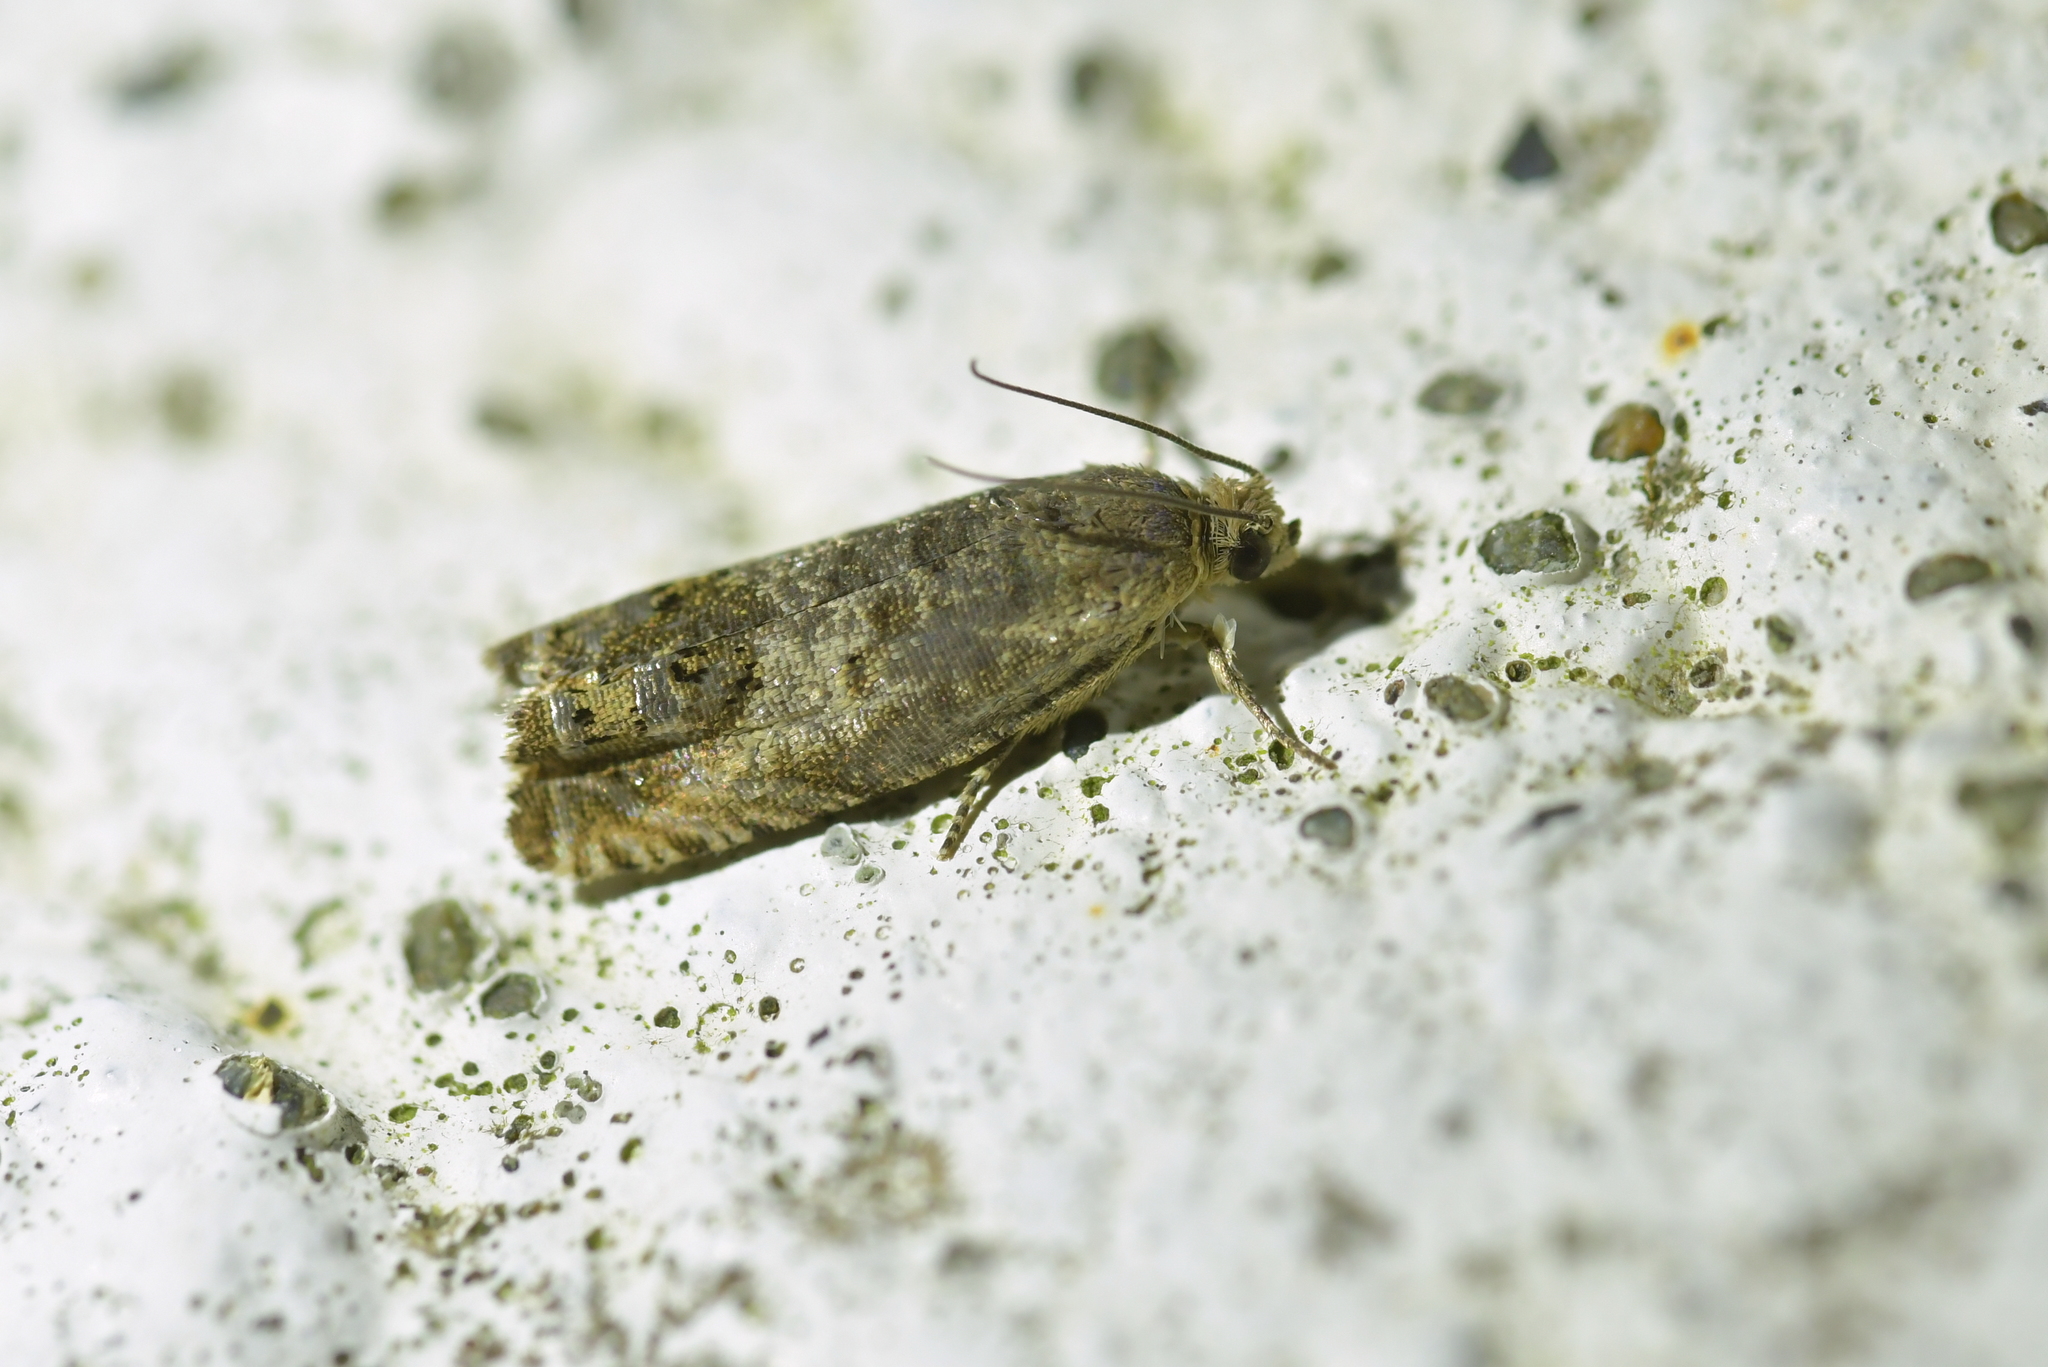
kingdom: Animalia
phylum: Arthropoda
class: Insecta
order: Lepidoptera
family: Tortricidae
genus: Cydia
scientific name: Cydia succedana
